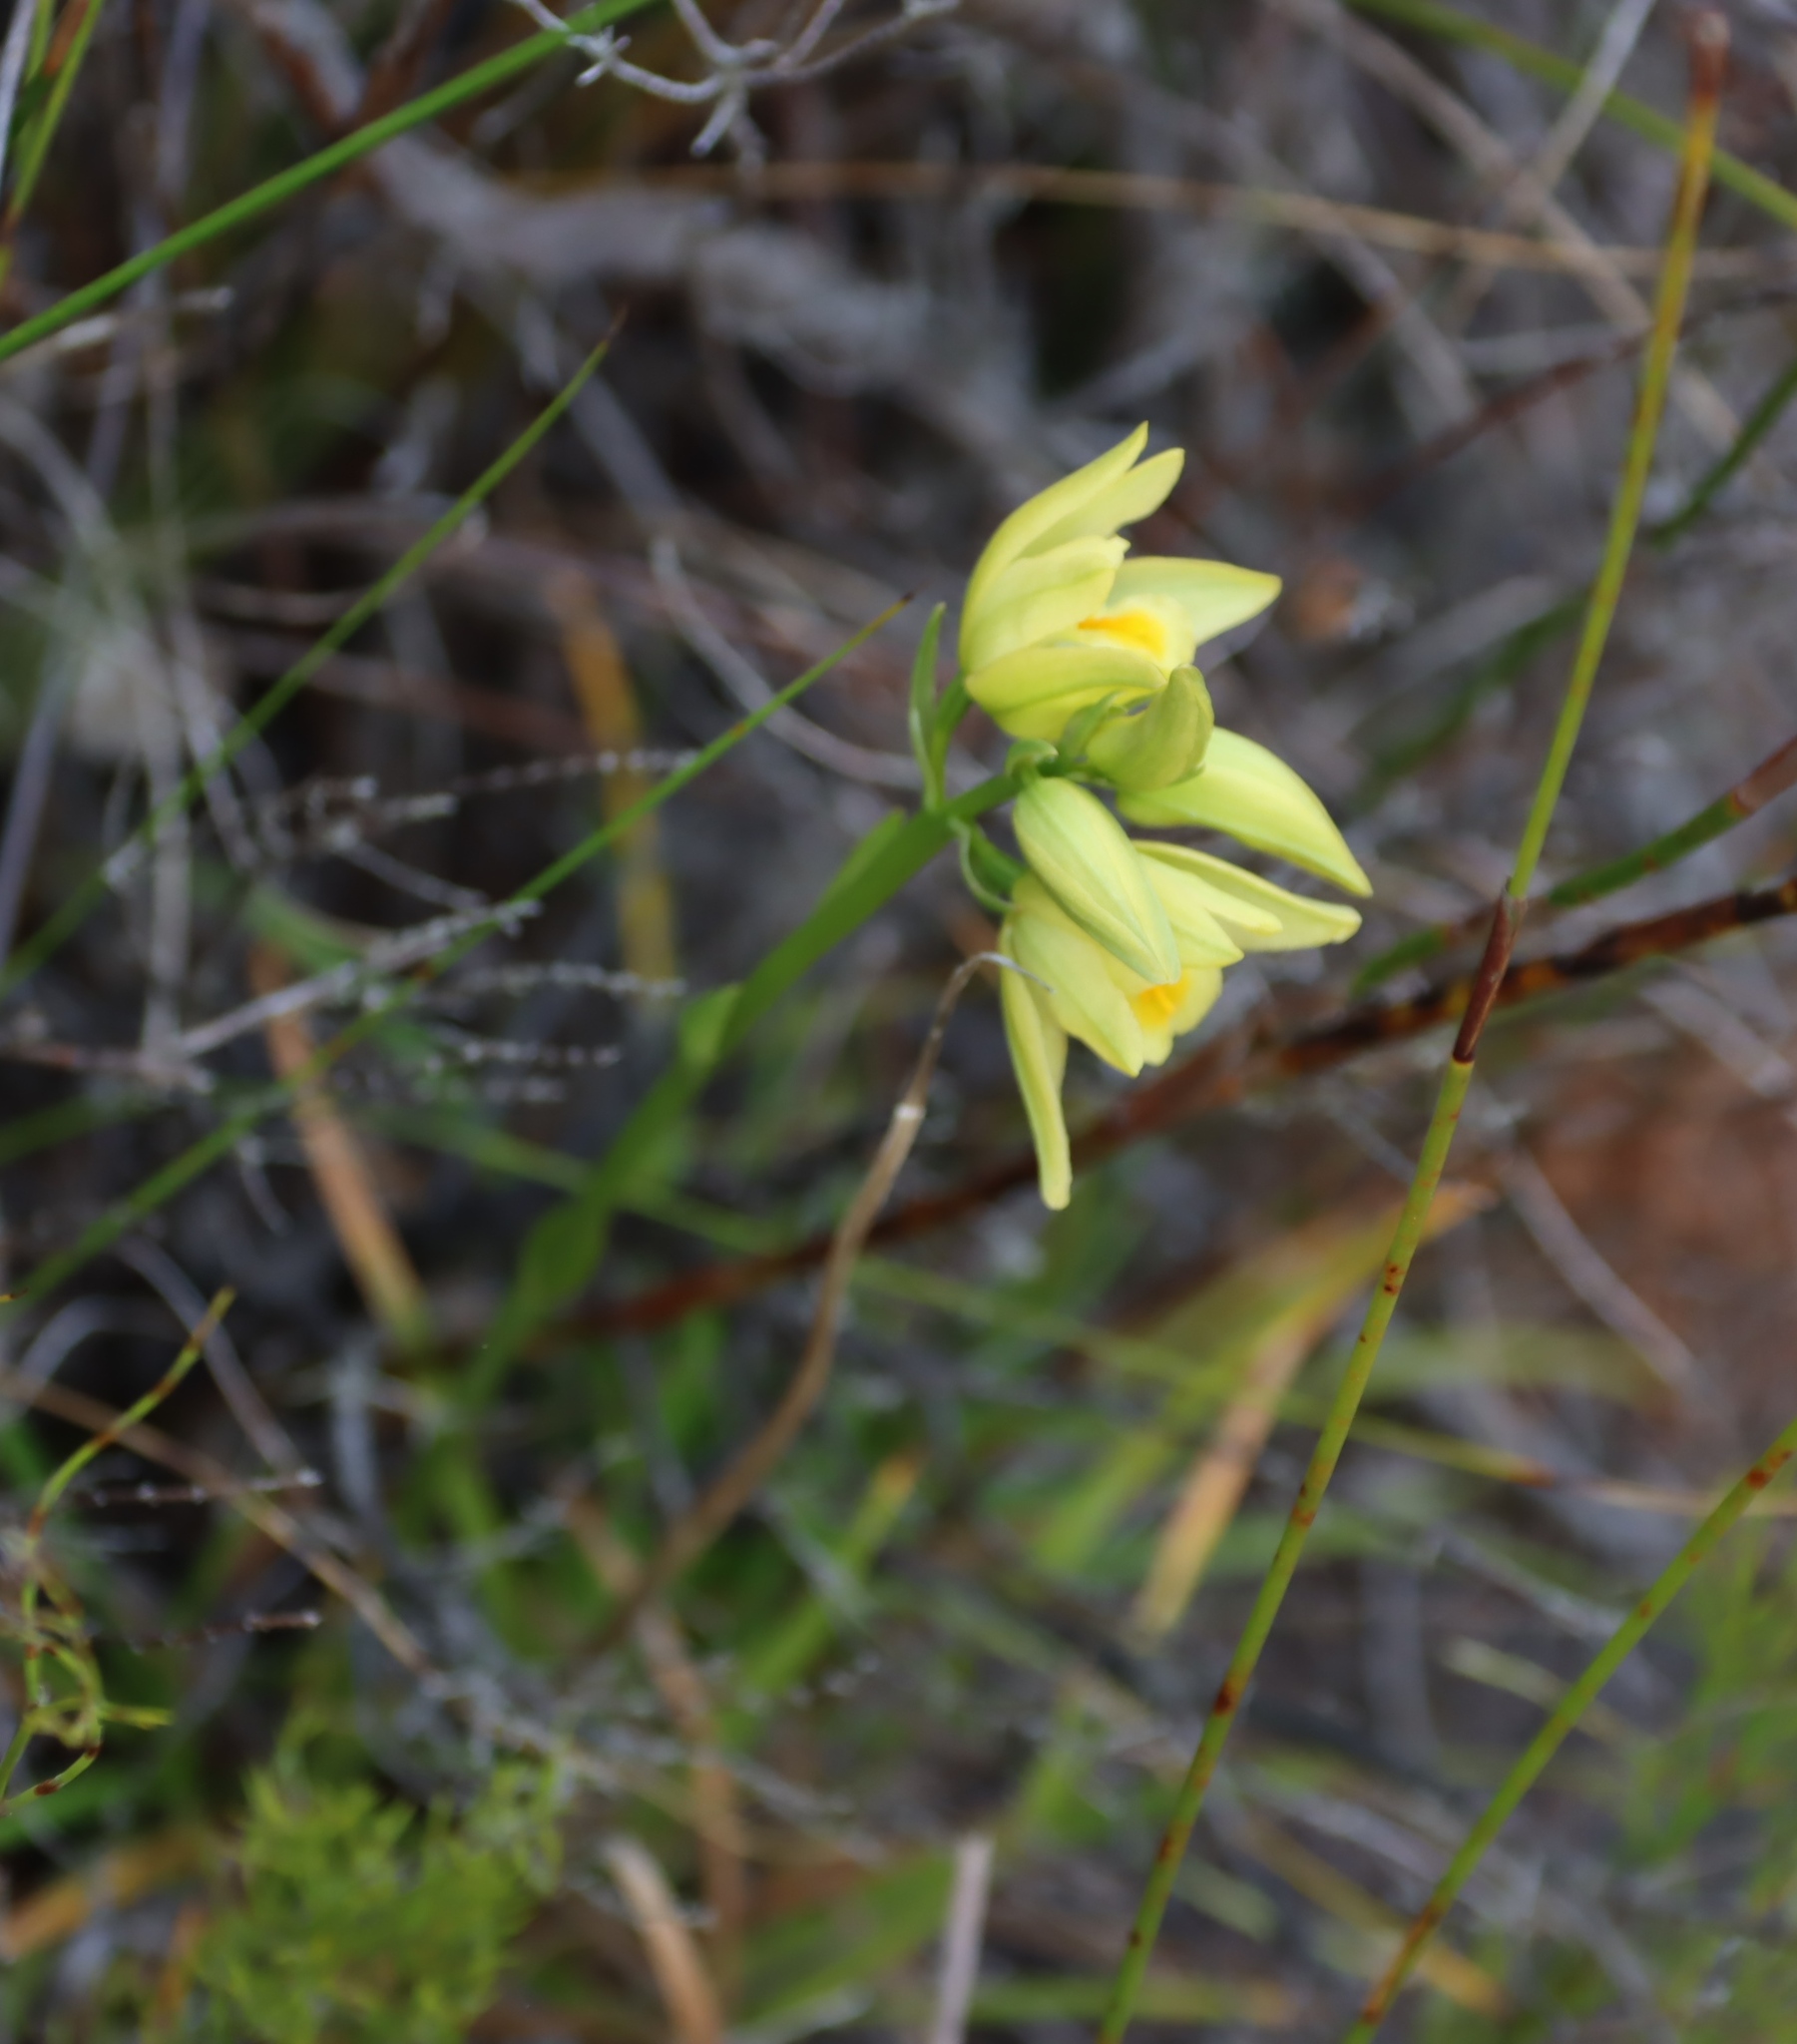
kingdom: Plantae
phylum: Tracheophyta
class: Liliopsida
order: Asparagales
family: Orchidaceae
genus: Eulophia
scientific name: Eulophia tabularis
